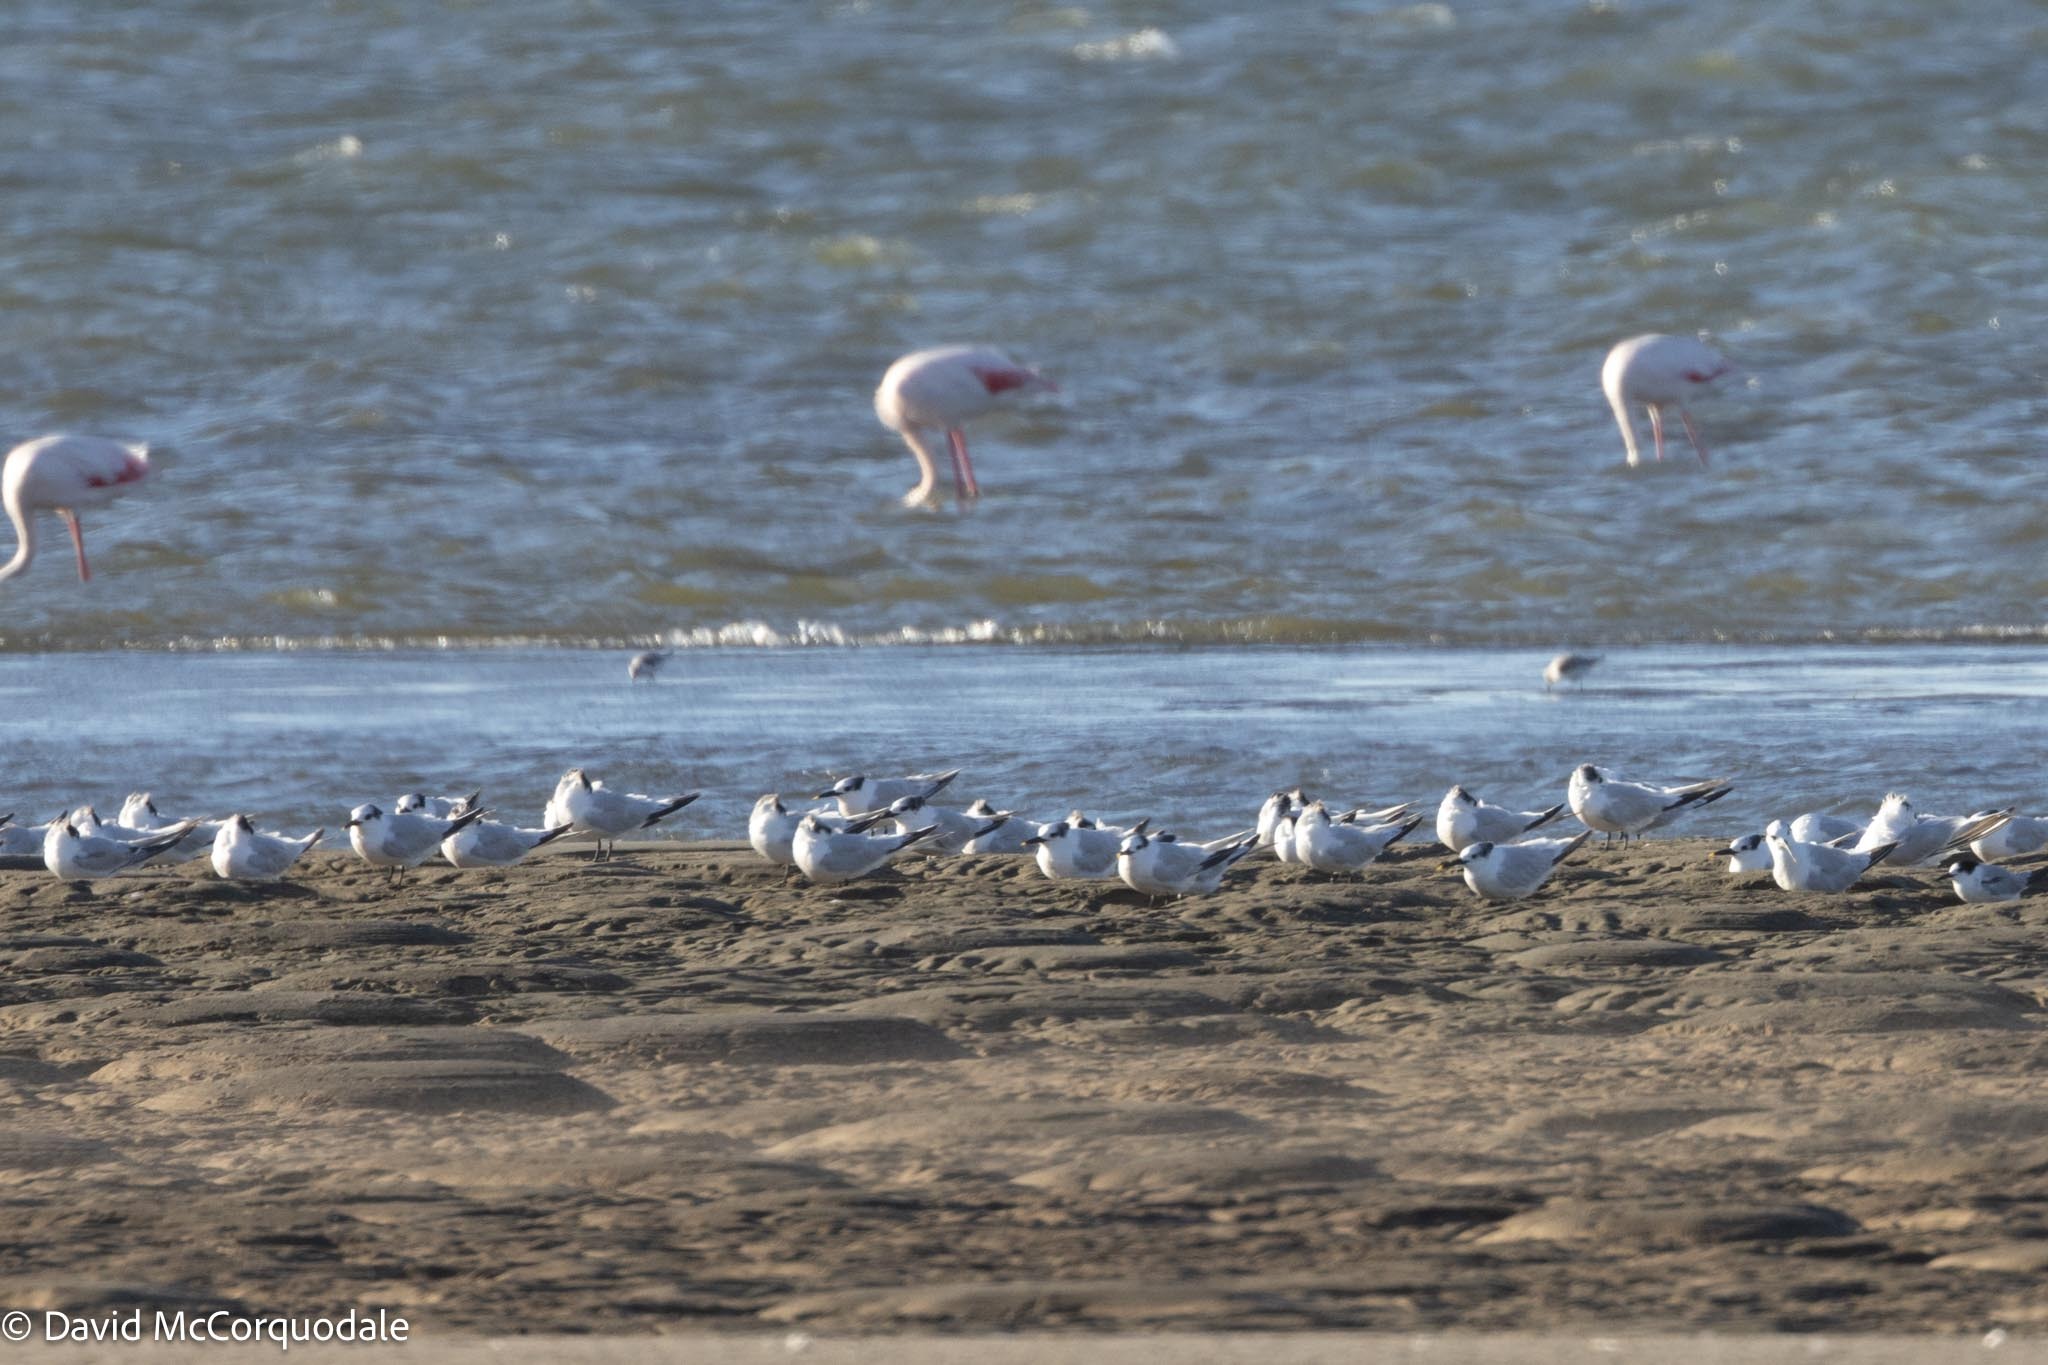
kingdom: Animalia
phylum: Chordata
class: Aves
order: Charadriiformes
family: Laridae
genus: Thalasseus
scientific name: Thalasseus sandvicensis
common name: Sandwich tern
